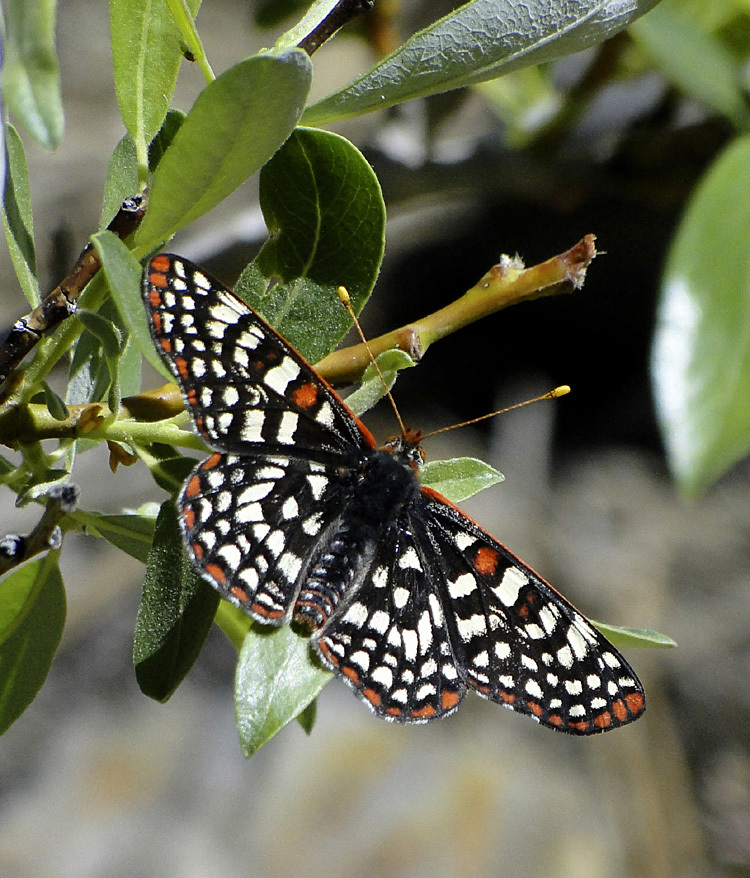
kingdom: Animalia
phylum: Arthropoda
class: Insecta
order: Lepidoptera
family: Nymphalidae
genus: Occidryas
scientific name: Occidryas chalcedona
